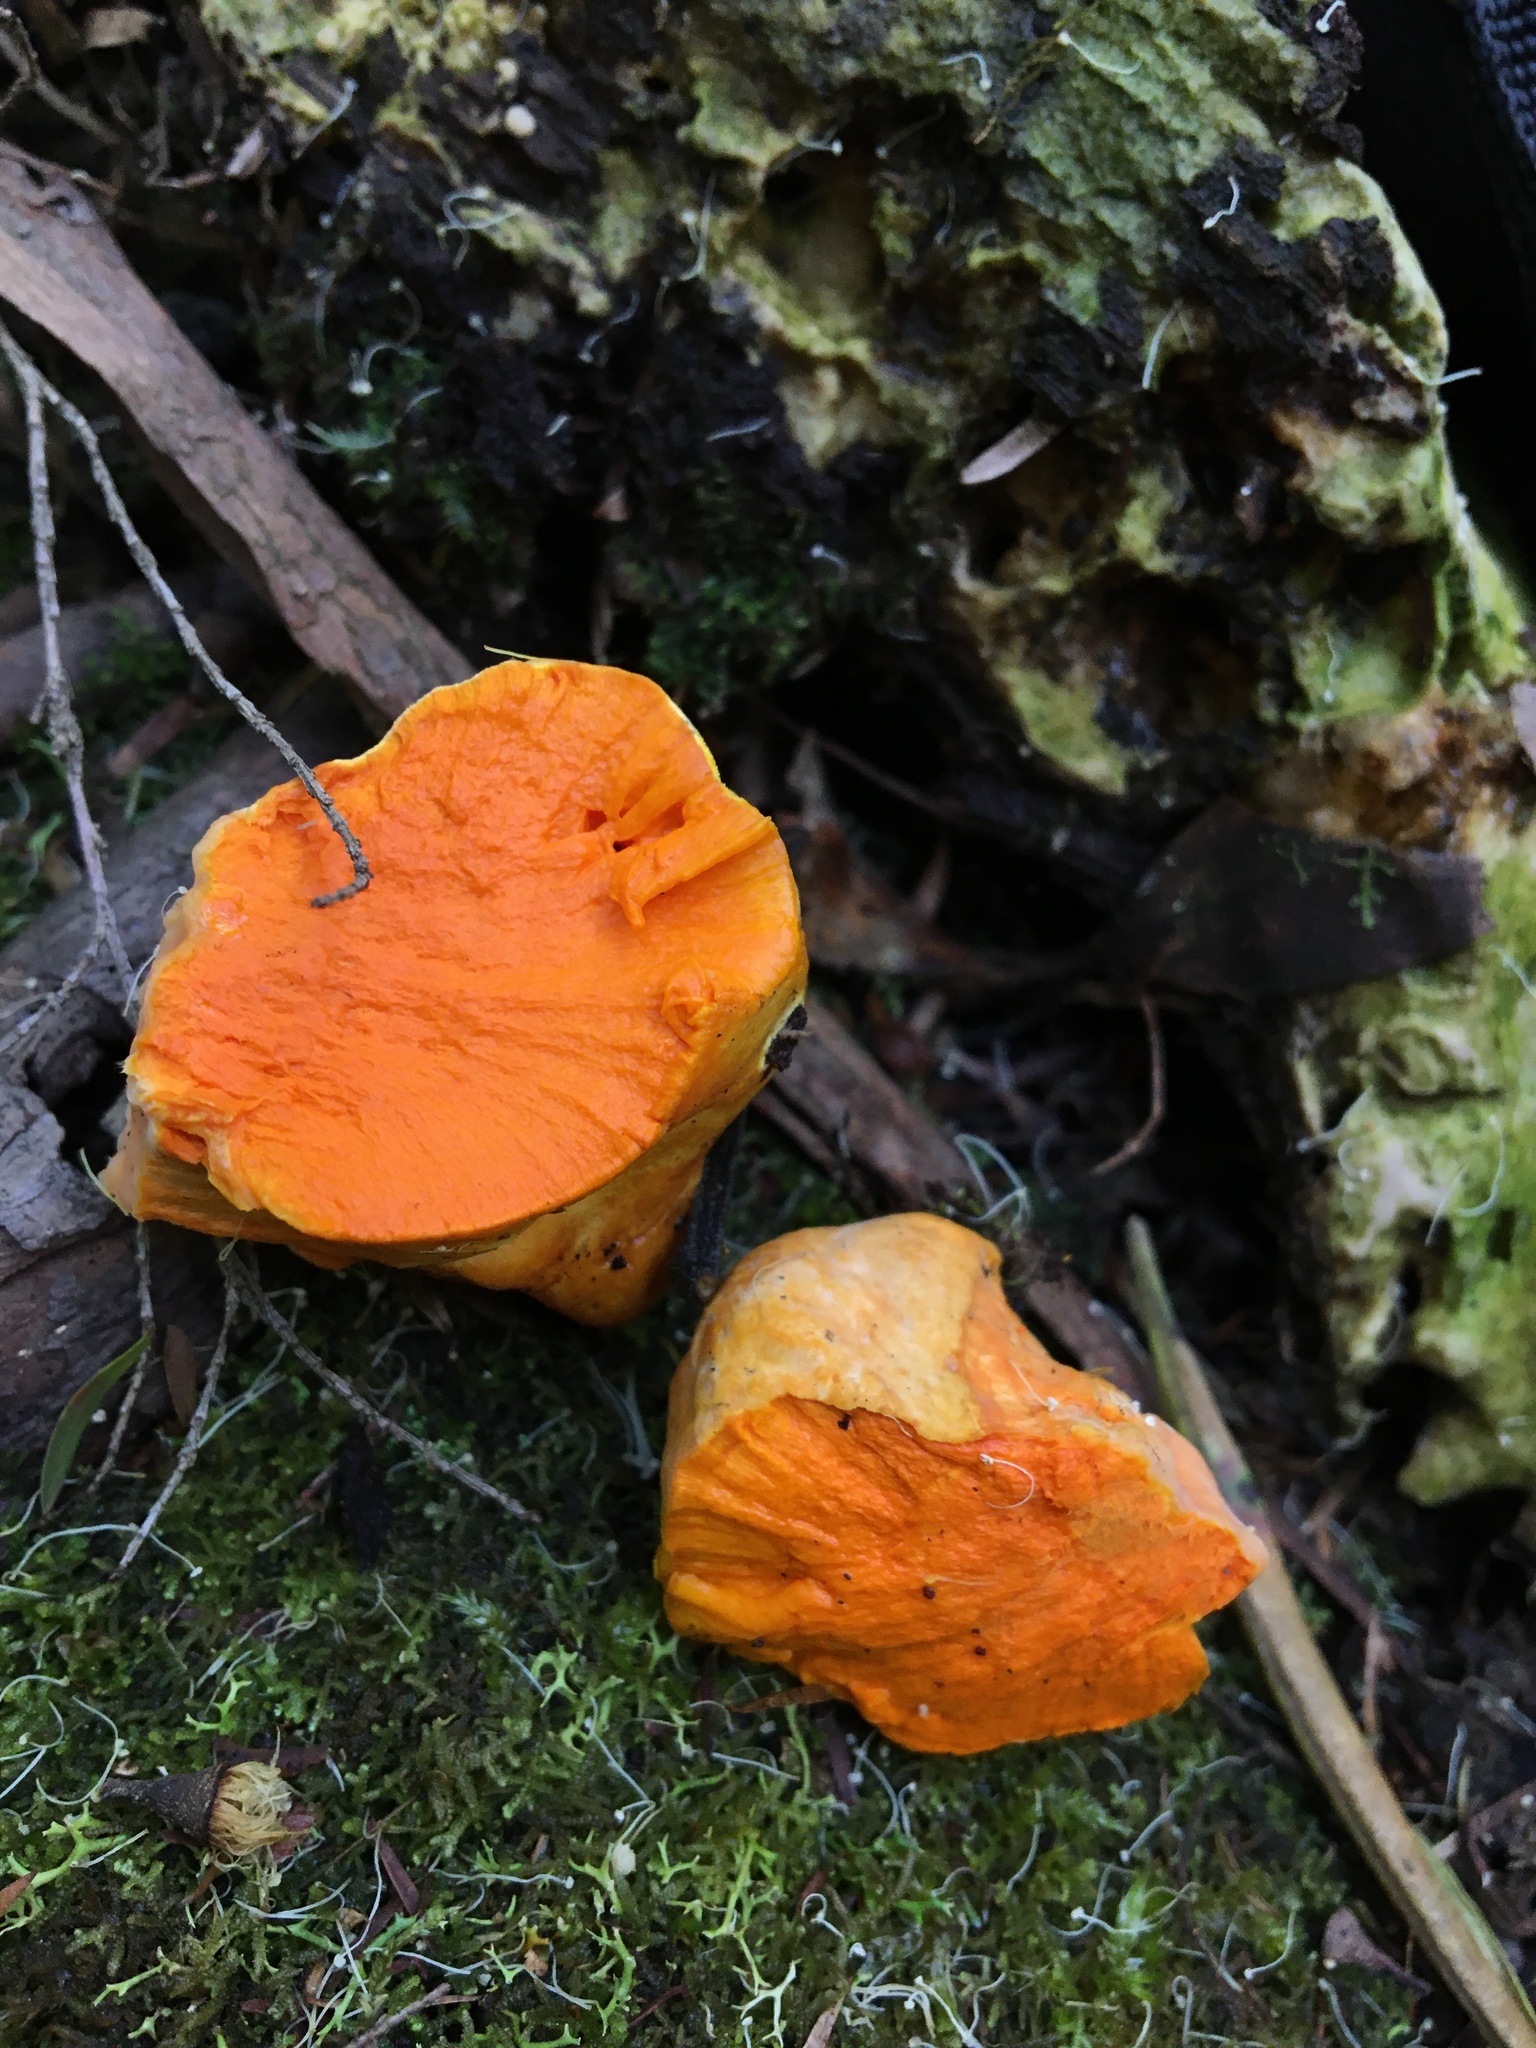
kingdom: Fungi
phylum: Basidiomycota
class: Agaricomycetes
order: Polyporales
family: Polyporaceae
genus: Polyporus
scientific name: Polyporus australiensis
